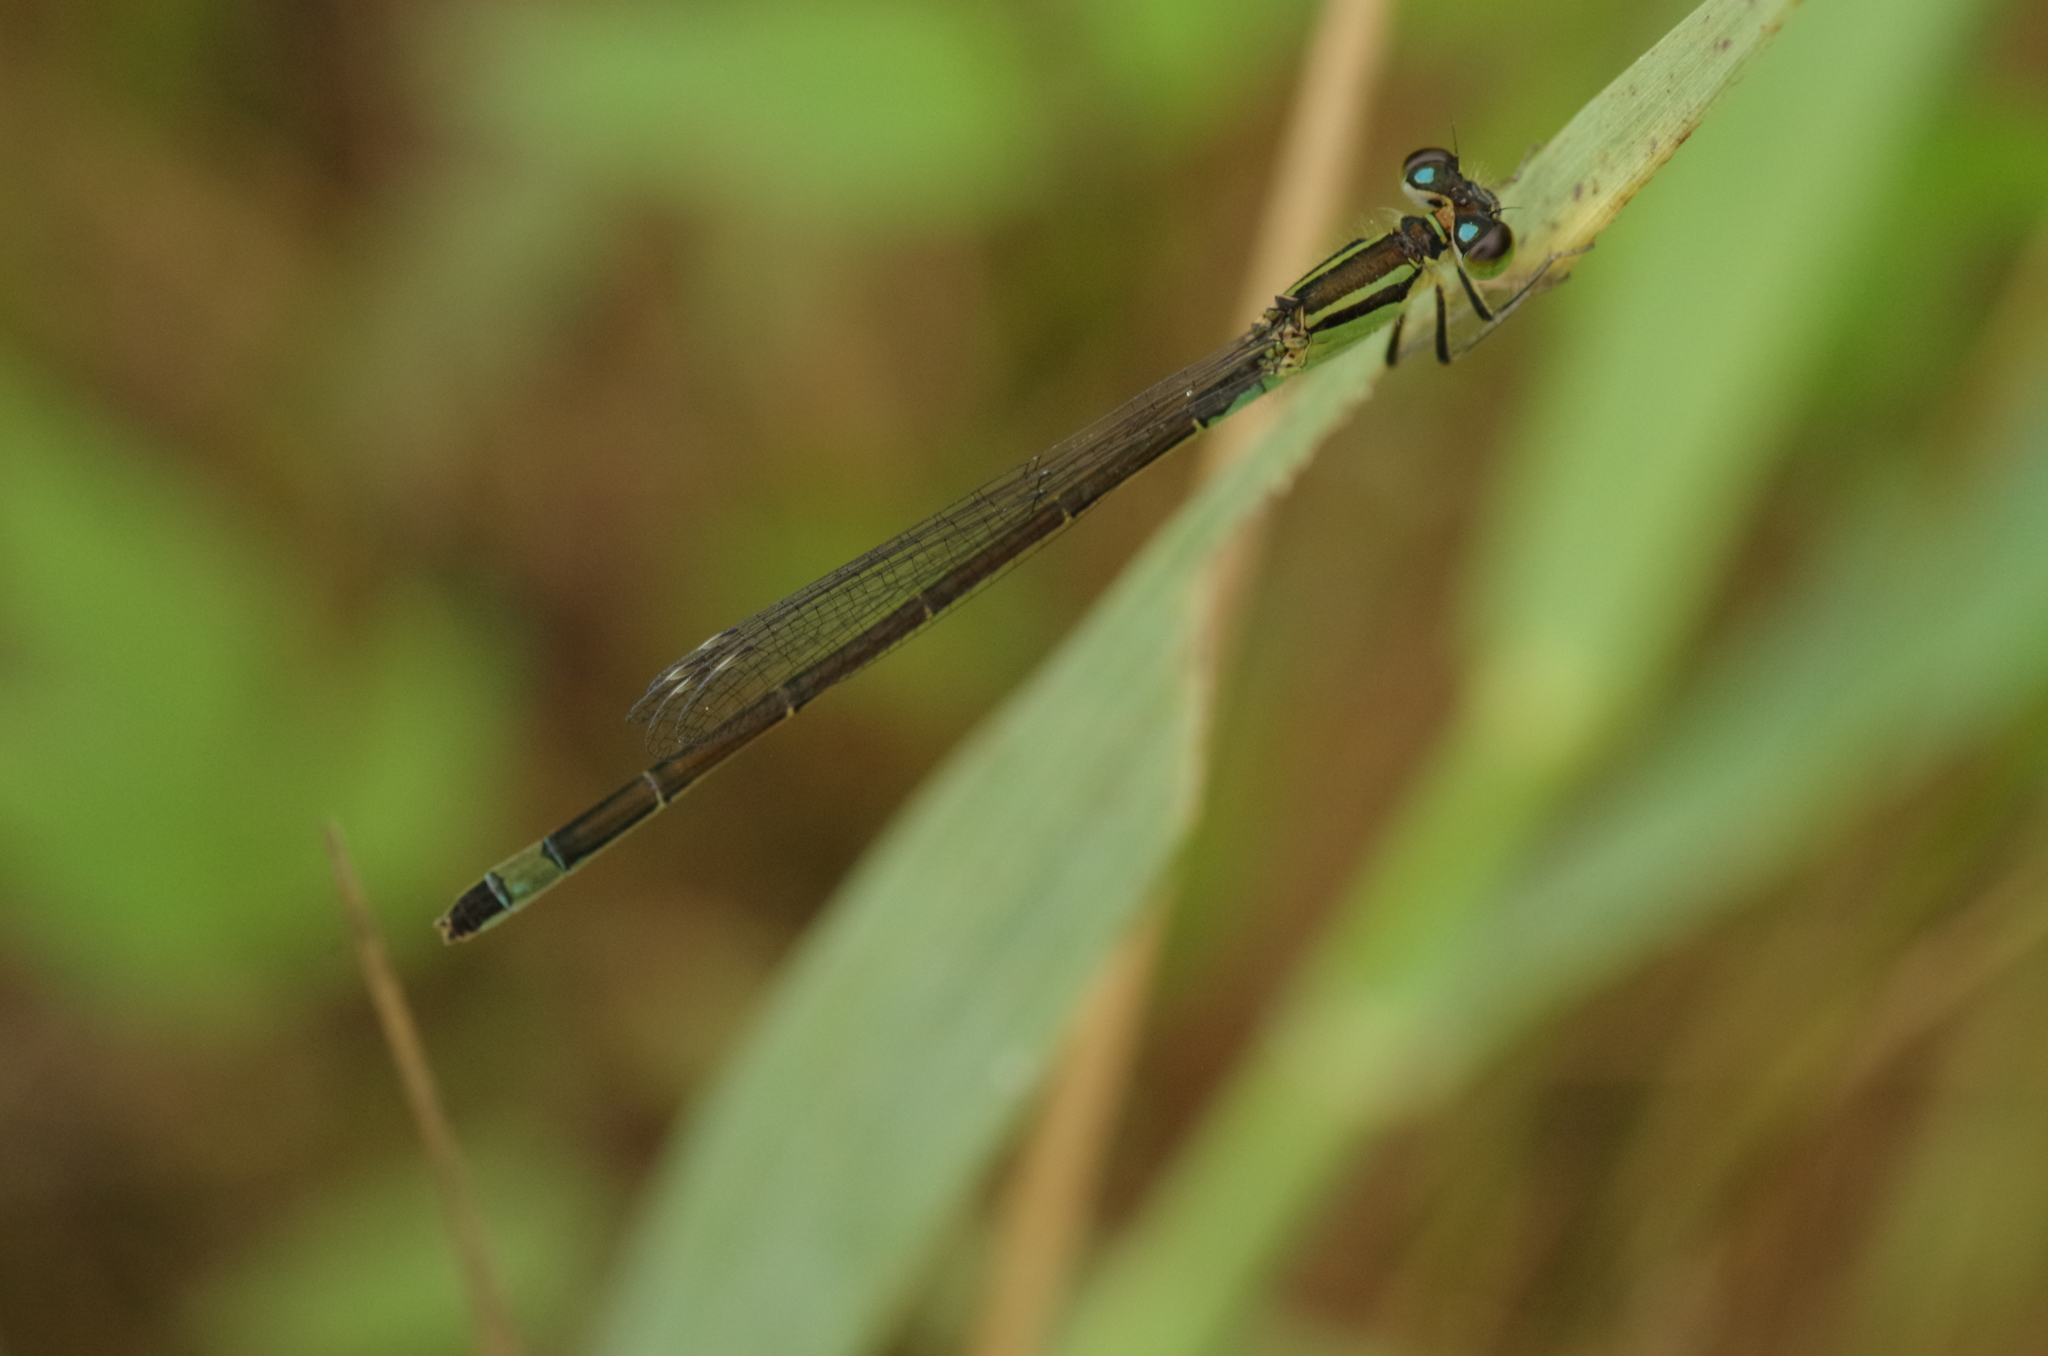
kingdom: Animalia
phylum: Arthropoda
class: Insecta
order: Odonata
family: Coenagrionidae
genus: Ischnura
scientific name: Ischnura elegans
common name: Blue-tailed damselfly
